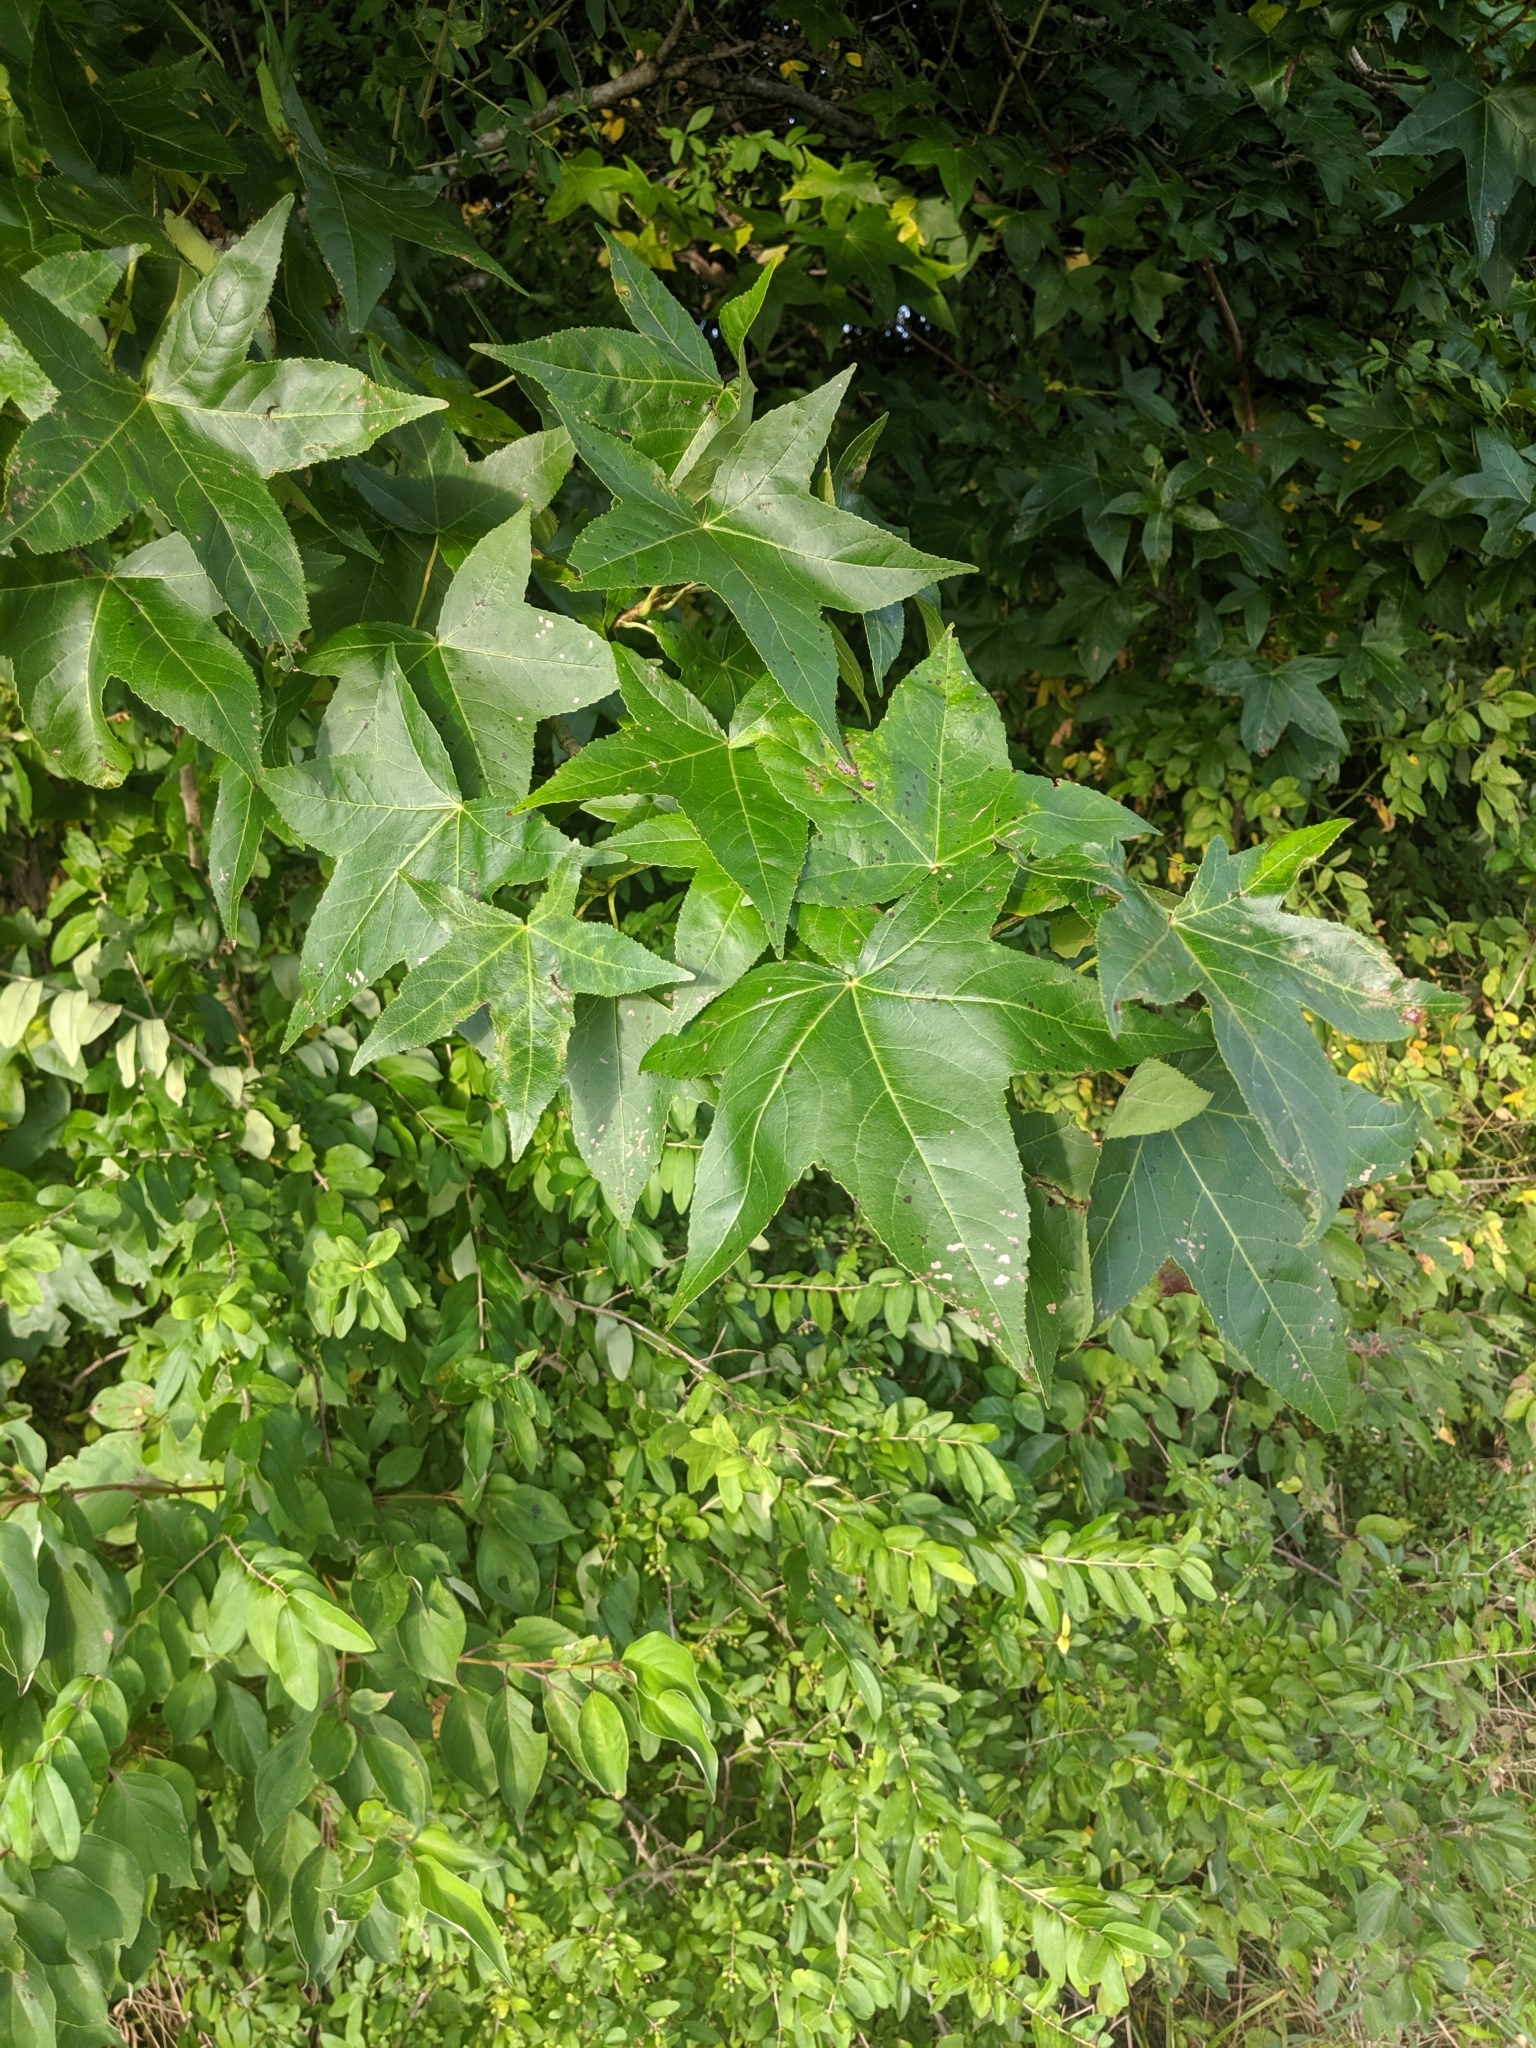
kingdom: Plantae
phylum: Tracheophyta
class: Magnoliopsida
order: Saxifragales
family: Altingiaceae
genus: Liquidambar
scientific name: Liquidambar styraciflua
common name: Sweet gum
